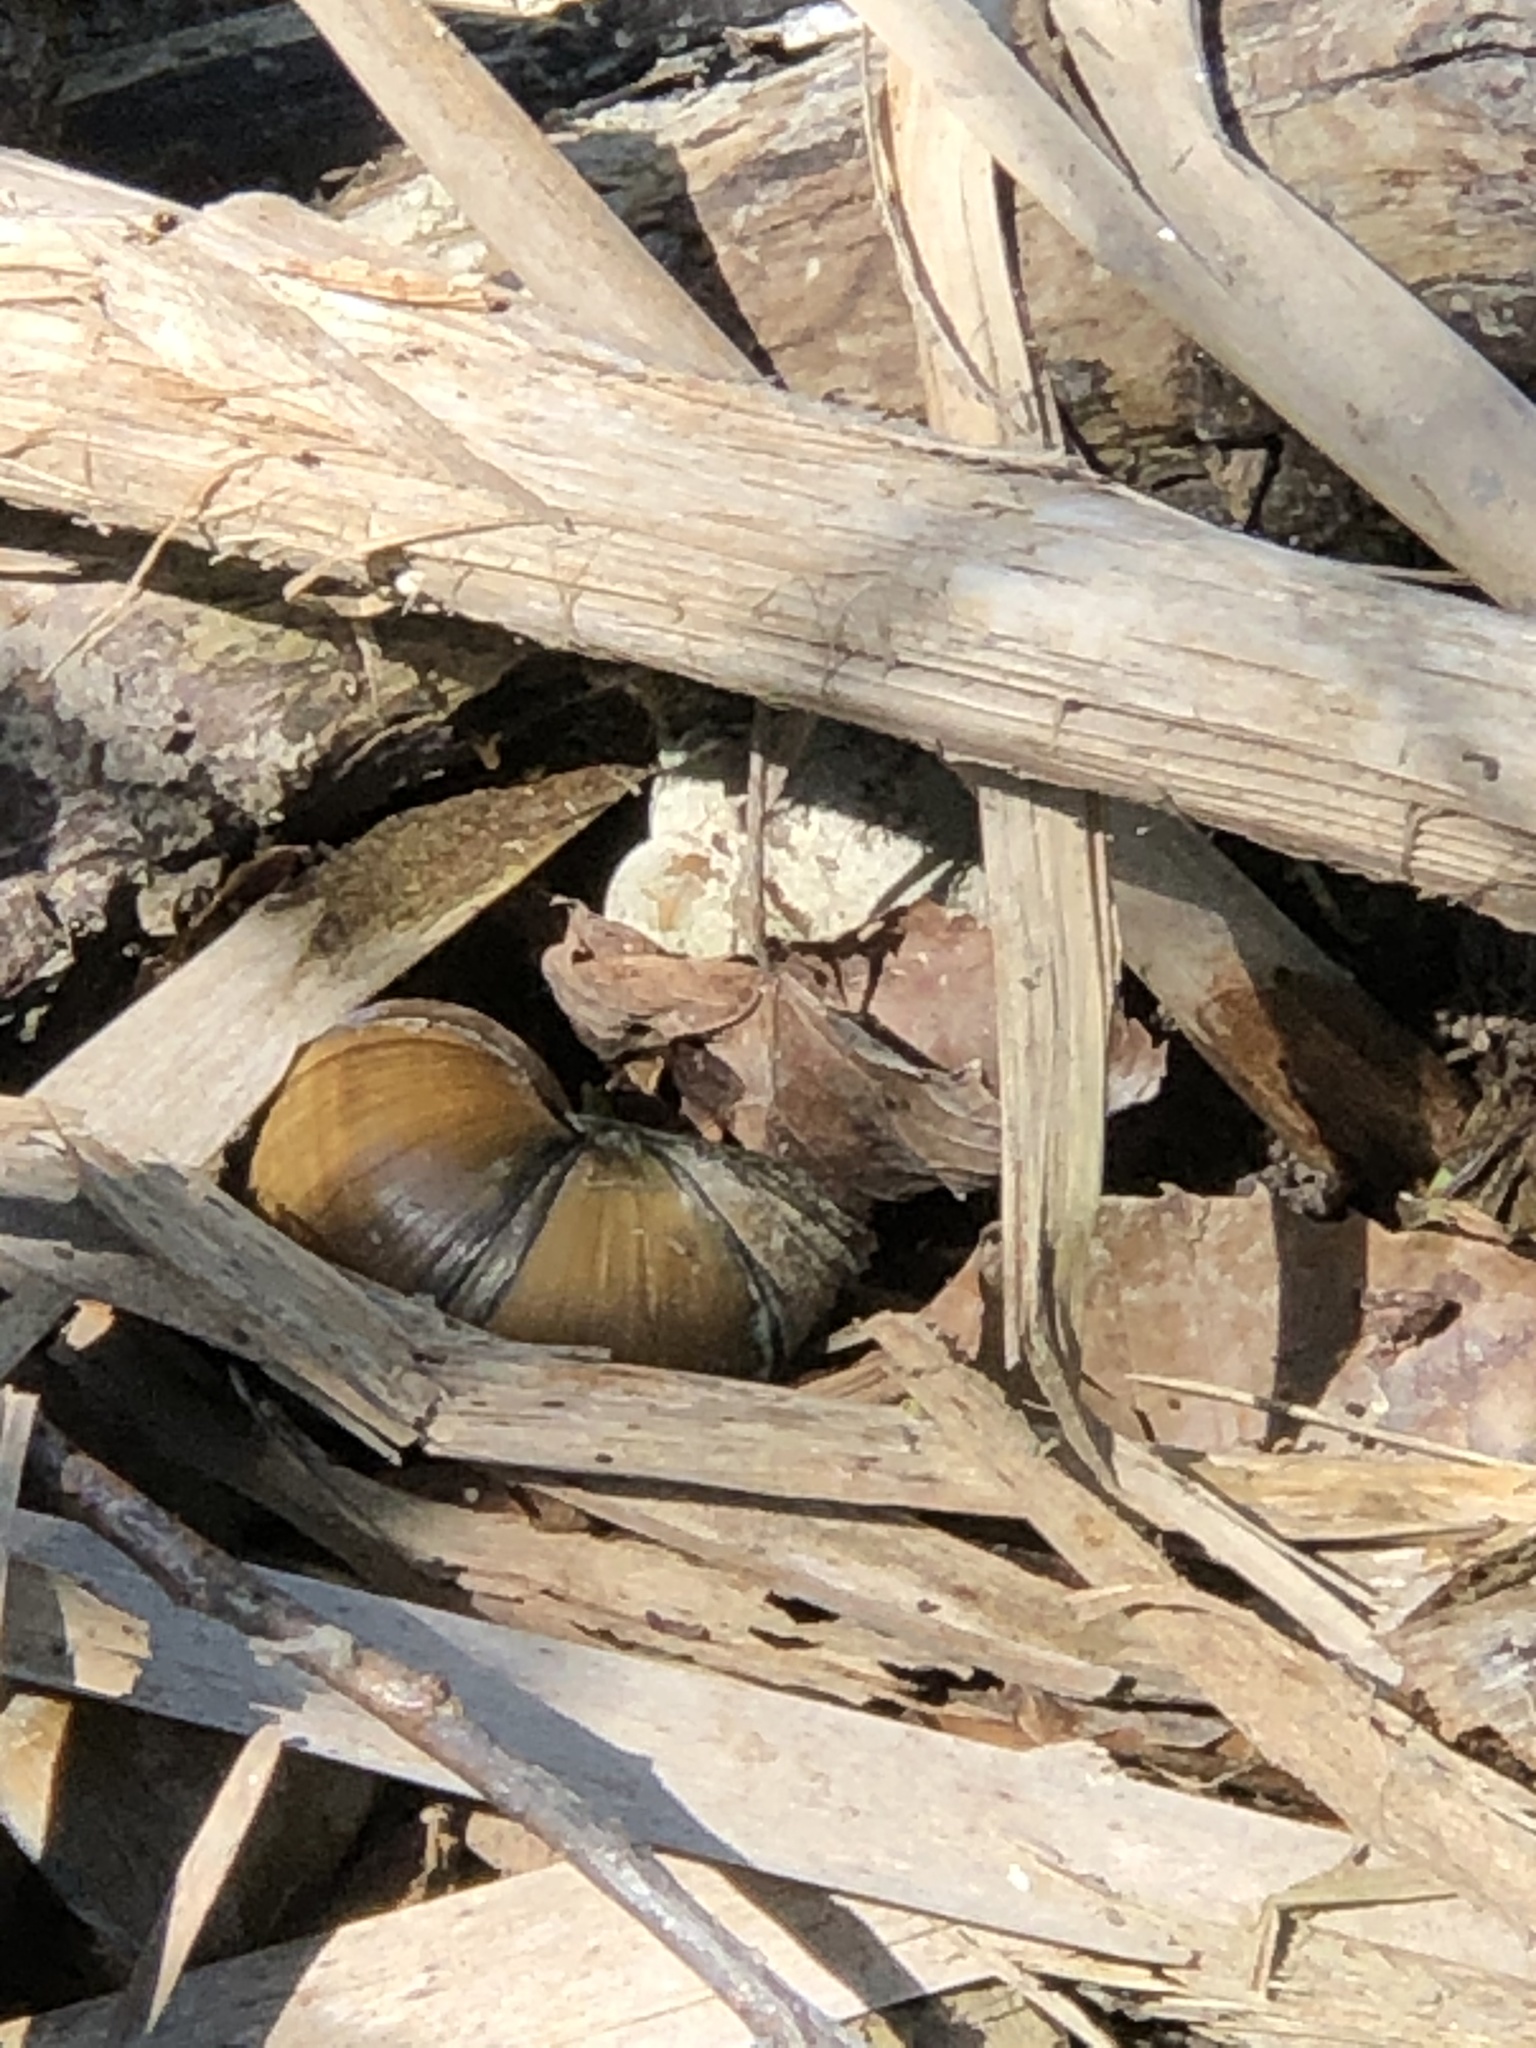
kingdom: Animalia
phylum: Mollusca
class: Gastropoda
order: Architaenioglossa
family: Viviparidae
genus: Cipangopaludina
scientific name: Cipangopaludina chinensis
